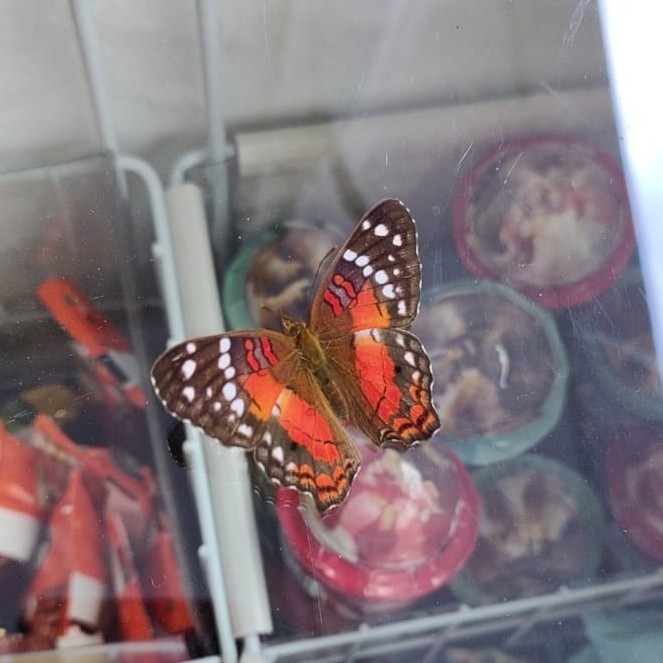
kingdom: Animalia
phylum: Arthropoda
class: Insecta
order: Lepidoptera
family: Nymphalidae
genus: Anartia
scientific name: Anartia amathea
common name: Red peacock
